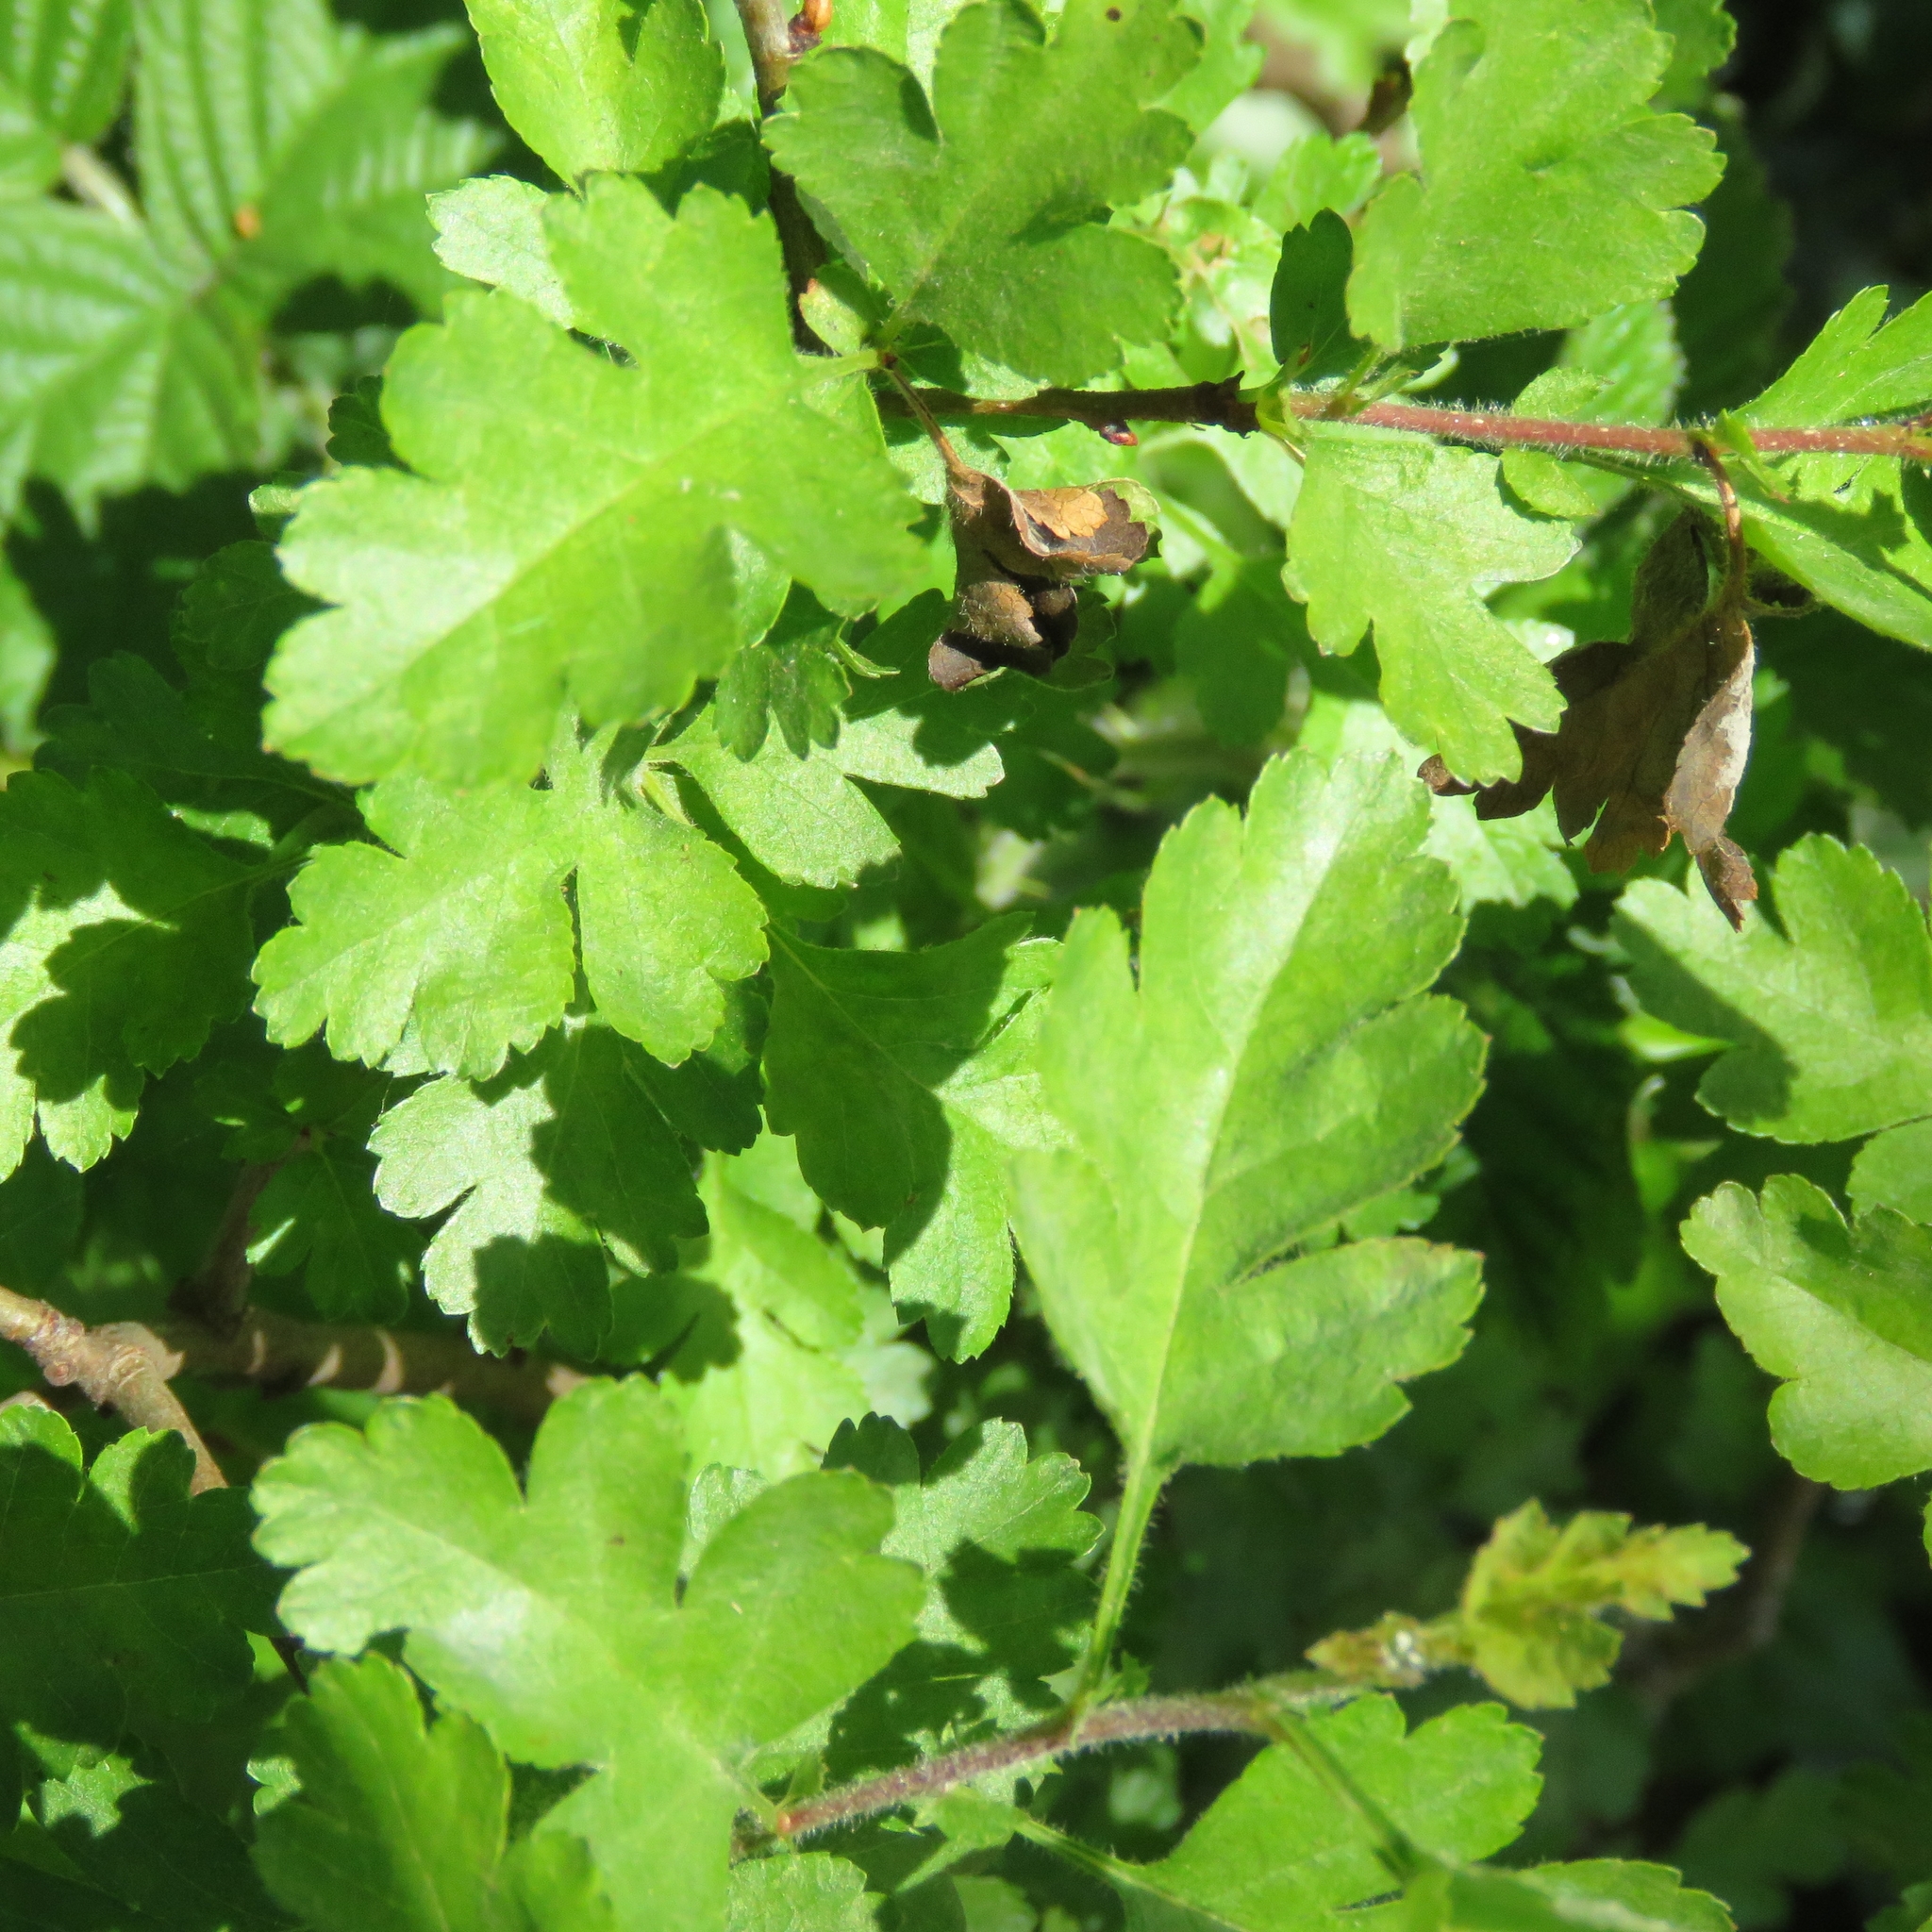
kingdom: Plantae
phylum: Tracheophyta
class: Magnoliopsida
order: Rosales
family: Rosaceae
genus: Crataegus
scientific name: Crataegus monogyna
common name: Hawthorn
